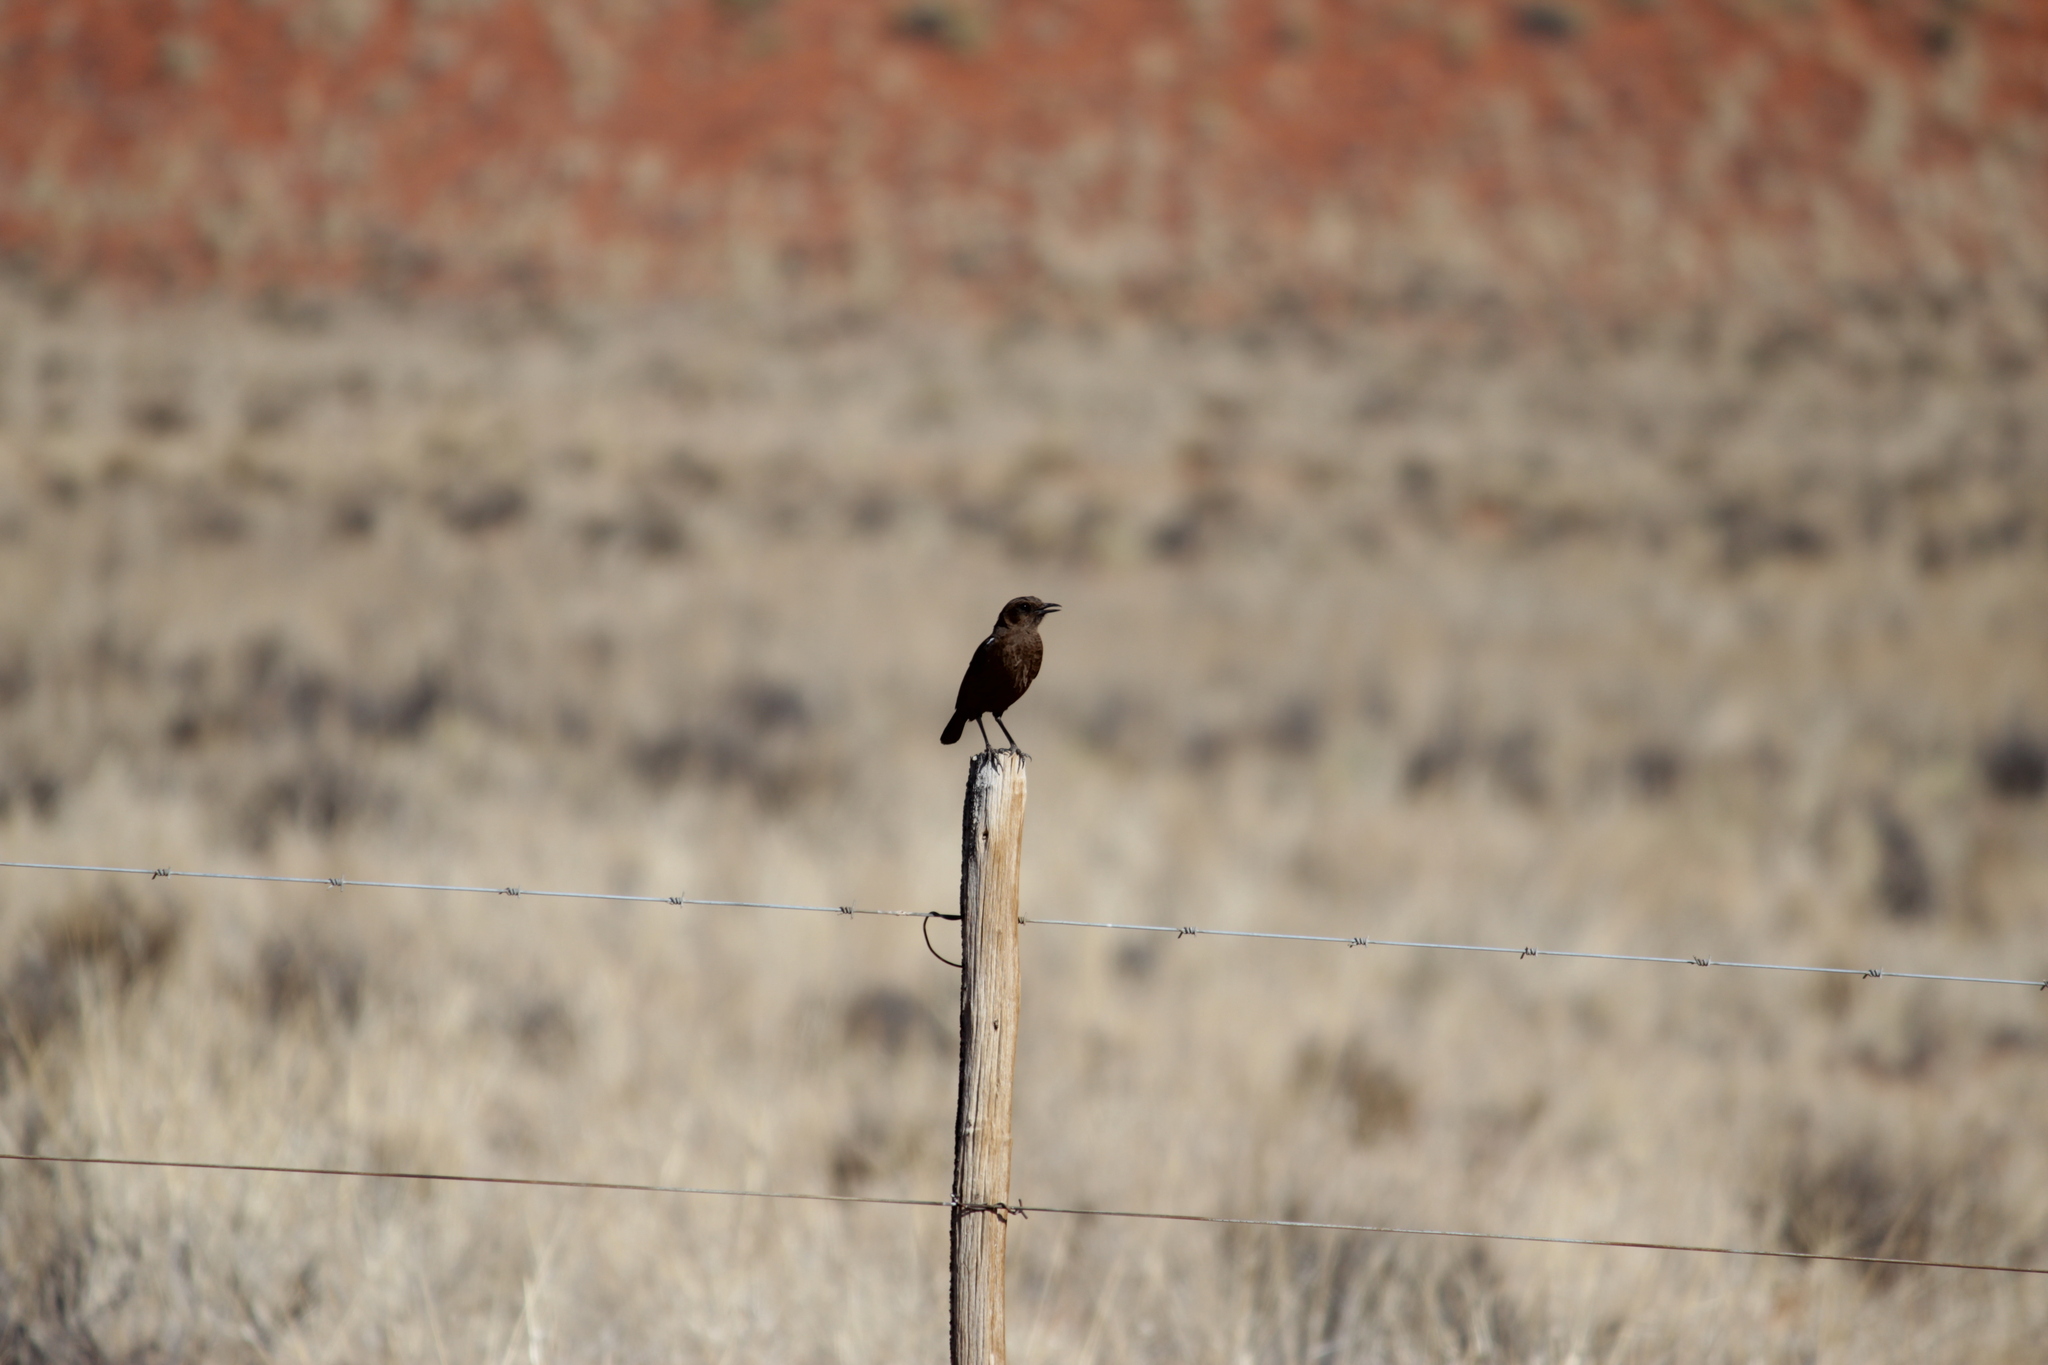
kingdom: Animalia
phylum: Chordata
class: Aves
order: Passeriformes
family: Muscicapidae
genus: Myrmecocichla
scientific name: Myrmecocichla formicivora
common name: Ant-eating chat
